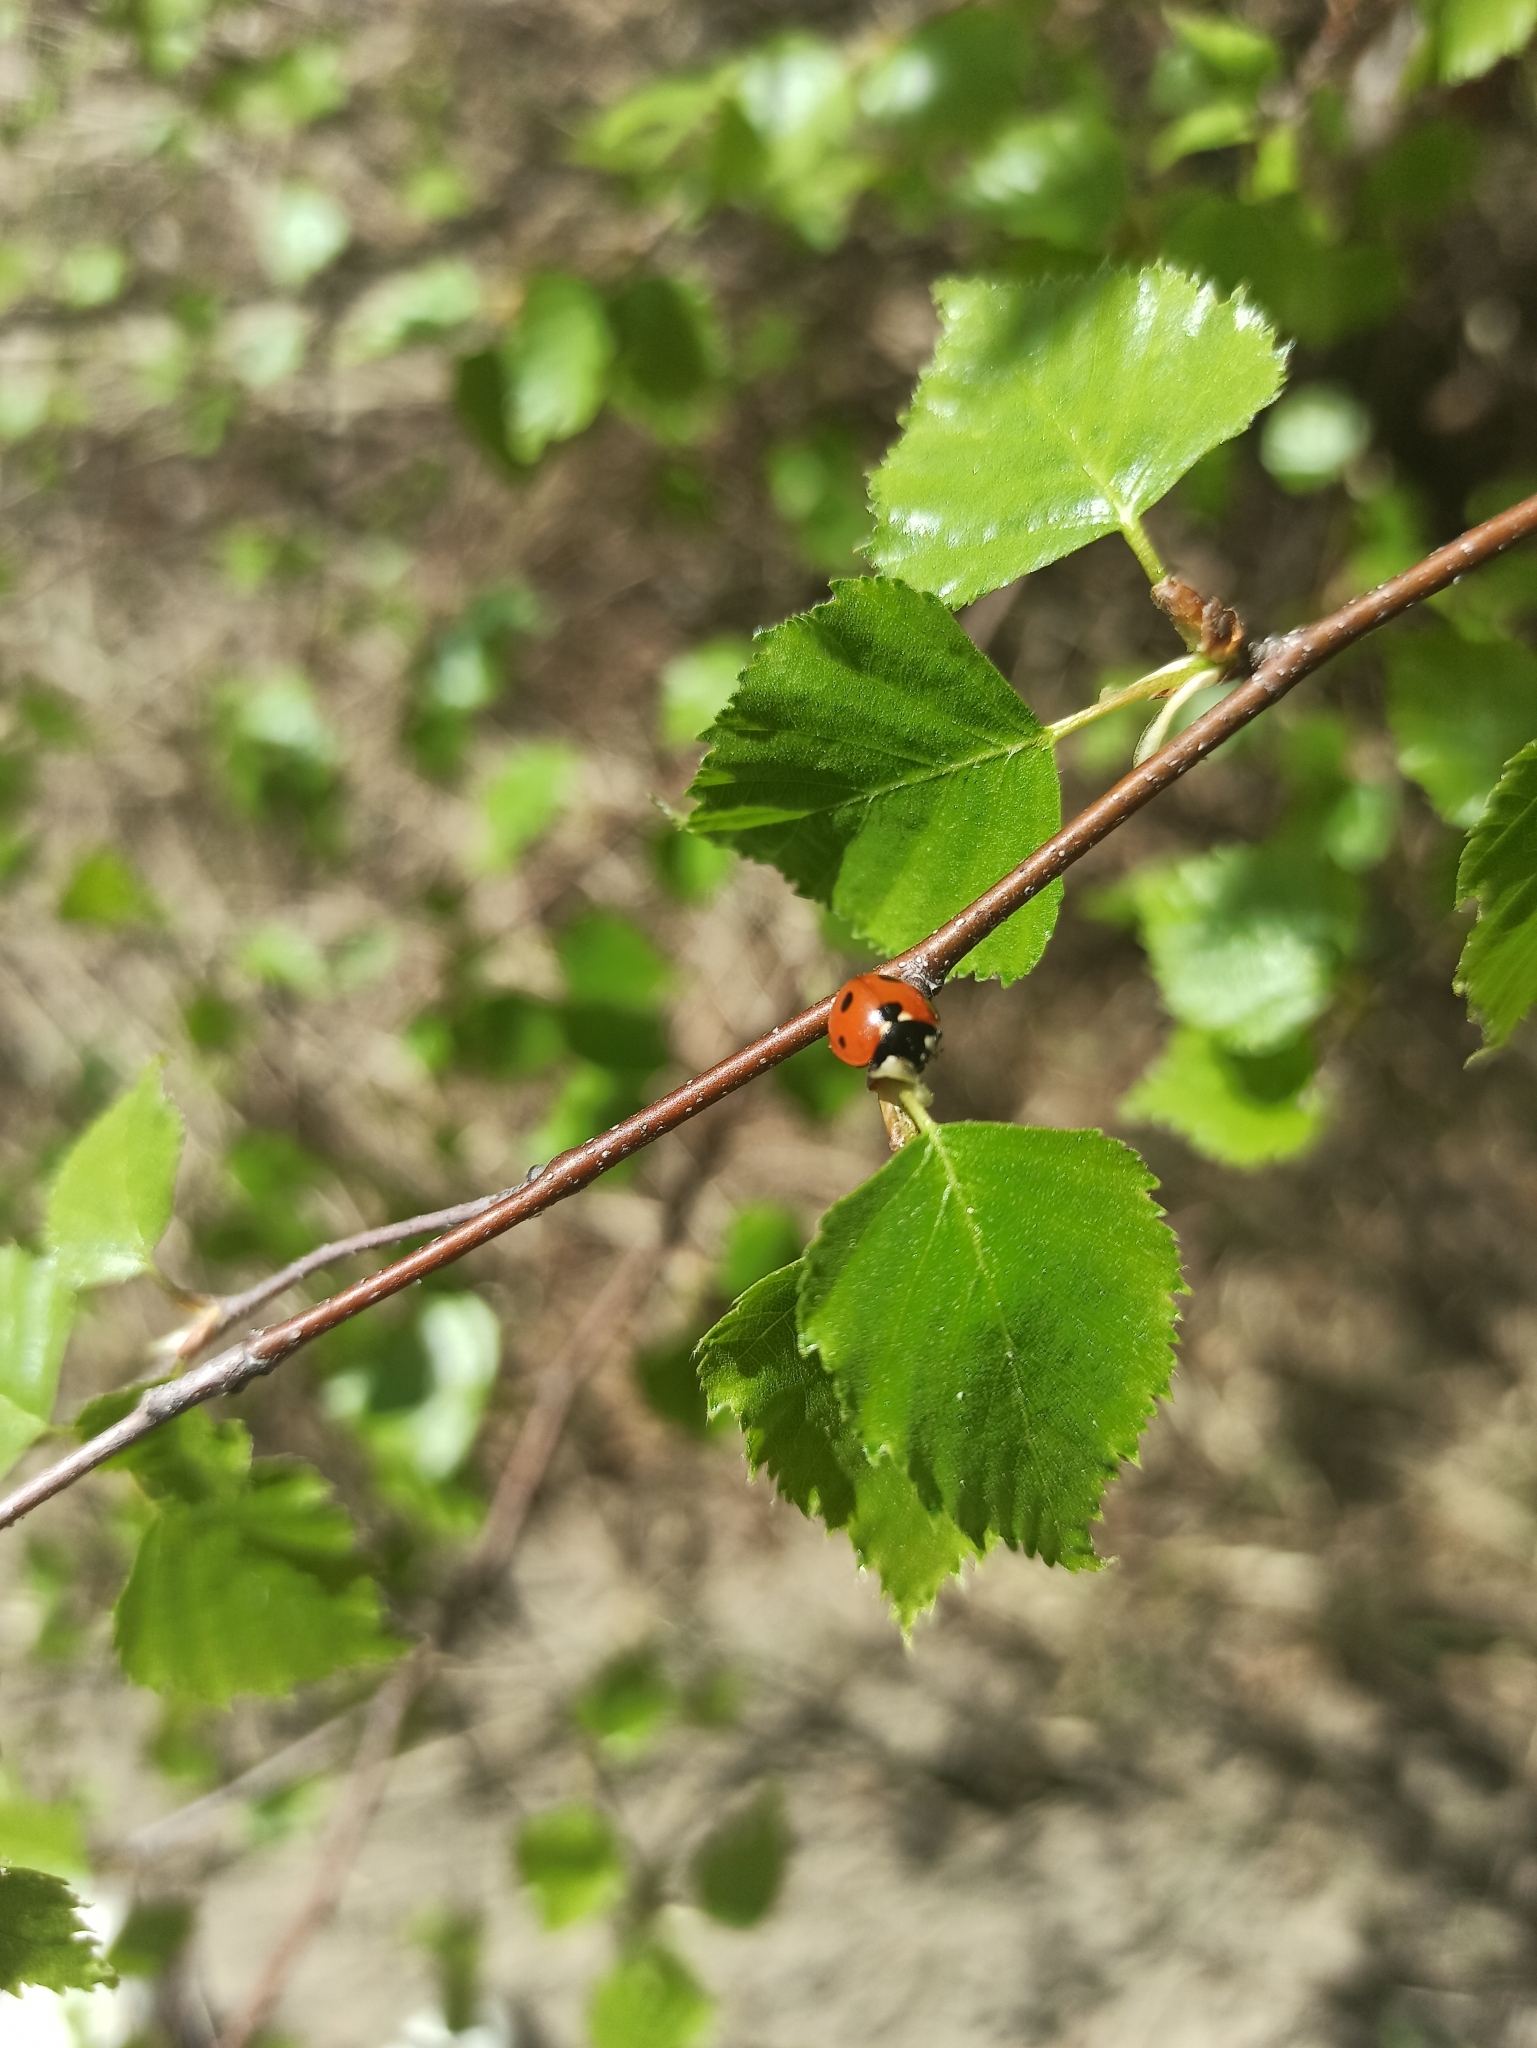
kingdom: Animalia
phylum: Arthropoda
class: Insecta
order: Coleoptera
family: Coccinellidae
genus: Coccinella
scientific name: Coccinella septempunctata
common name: Sevenspotted lady beetle
